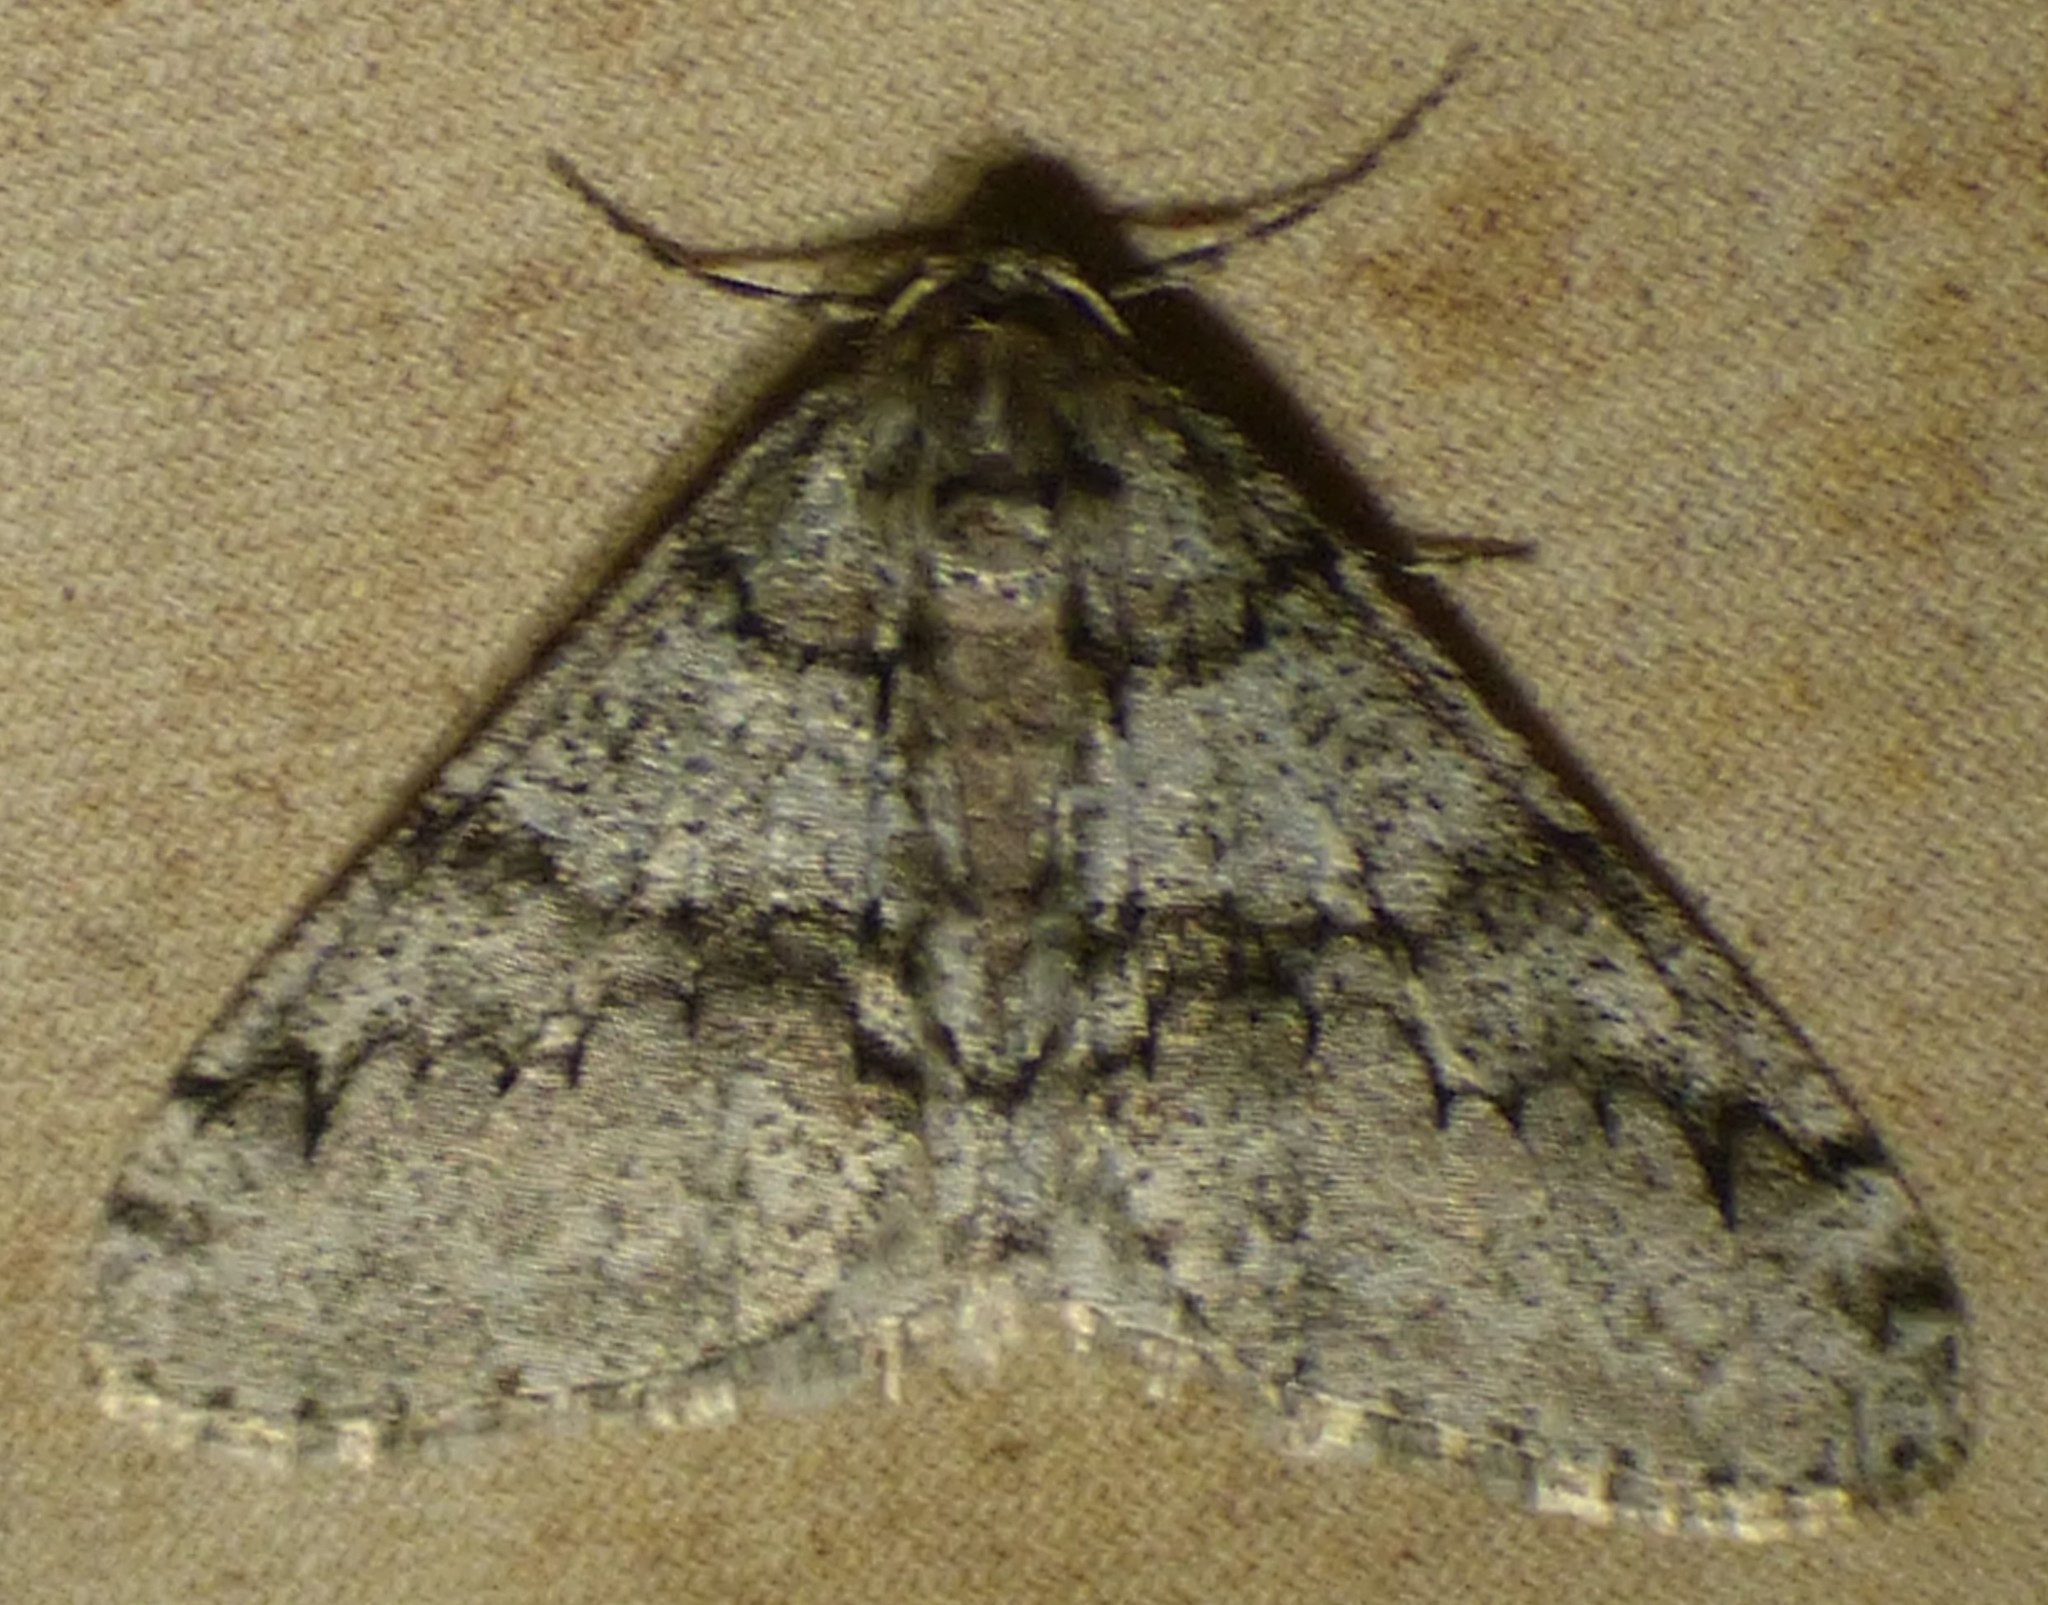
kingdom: Animalia
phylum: Arthropoda
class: Insecta
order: Lepidoptera
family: Geometridae
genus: Phigalia
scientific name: Phigalia strigataria
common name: Small phigalia
